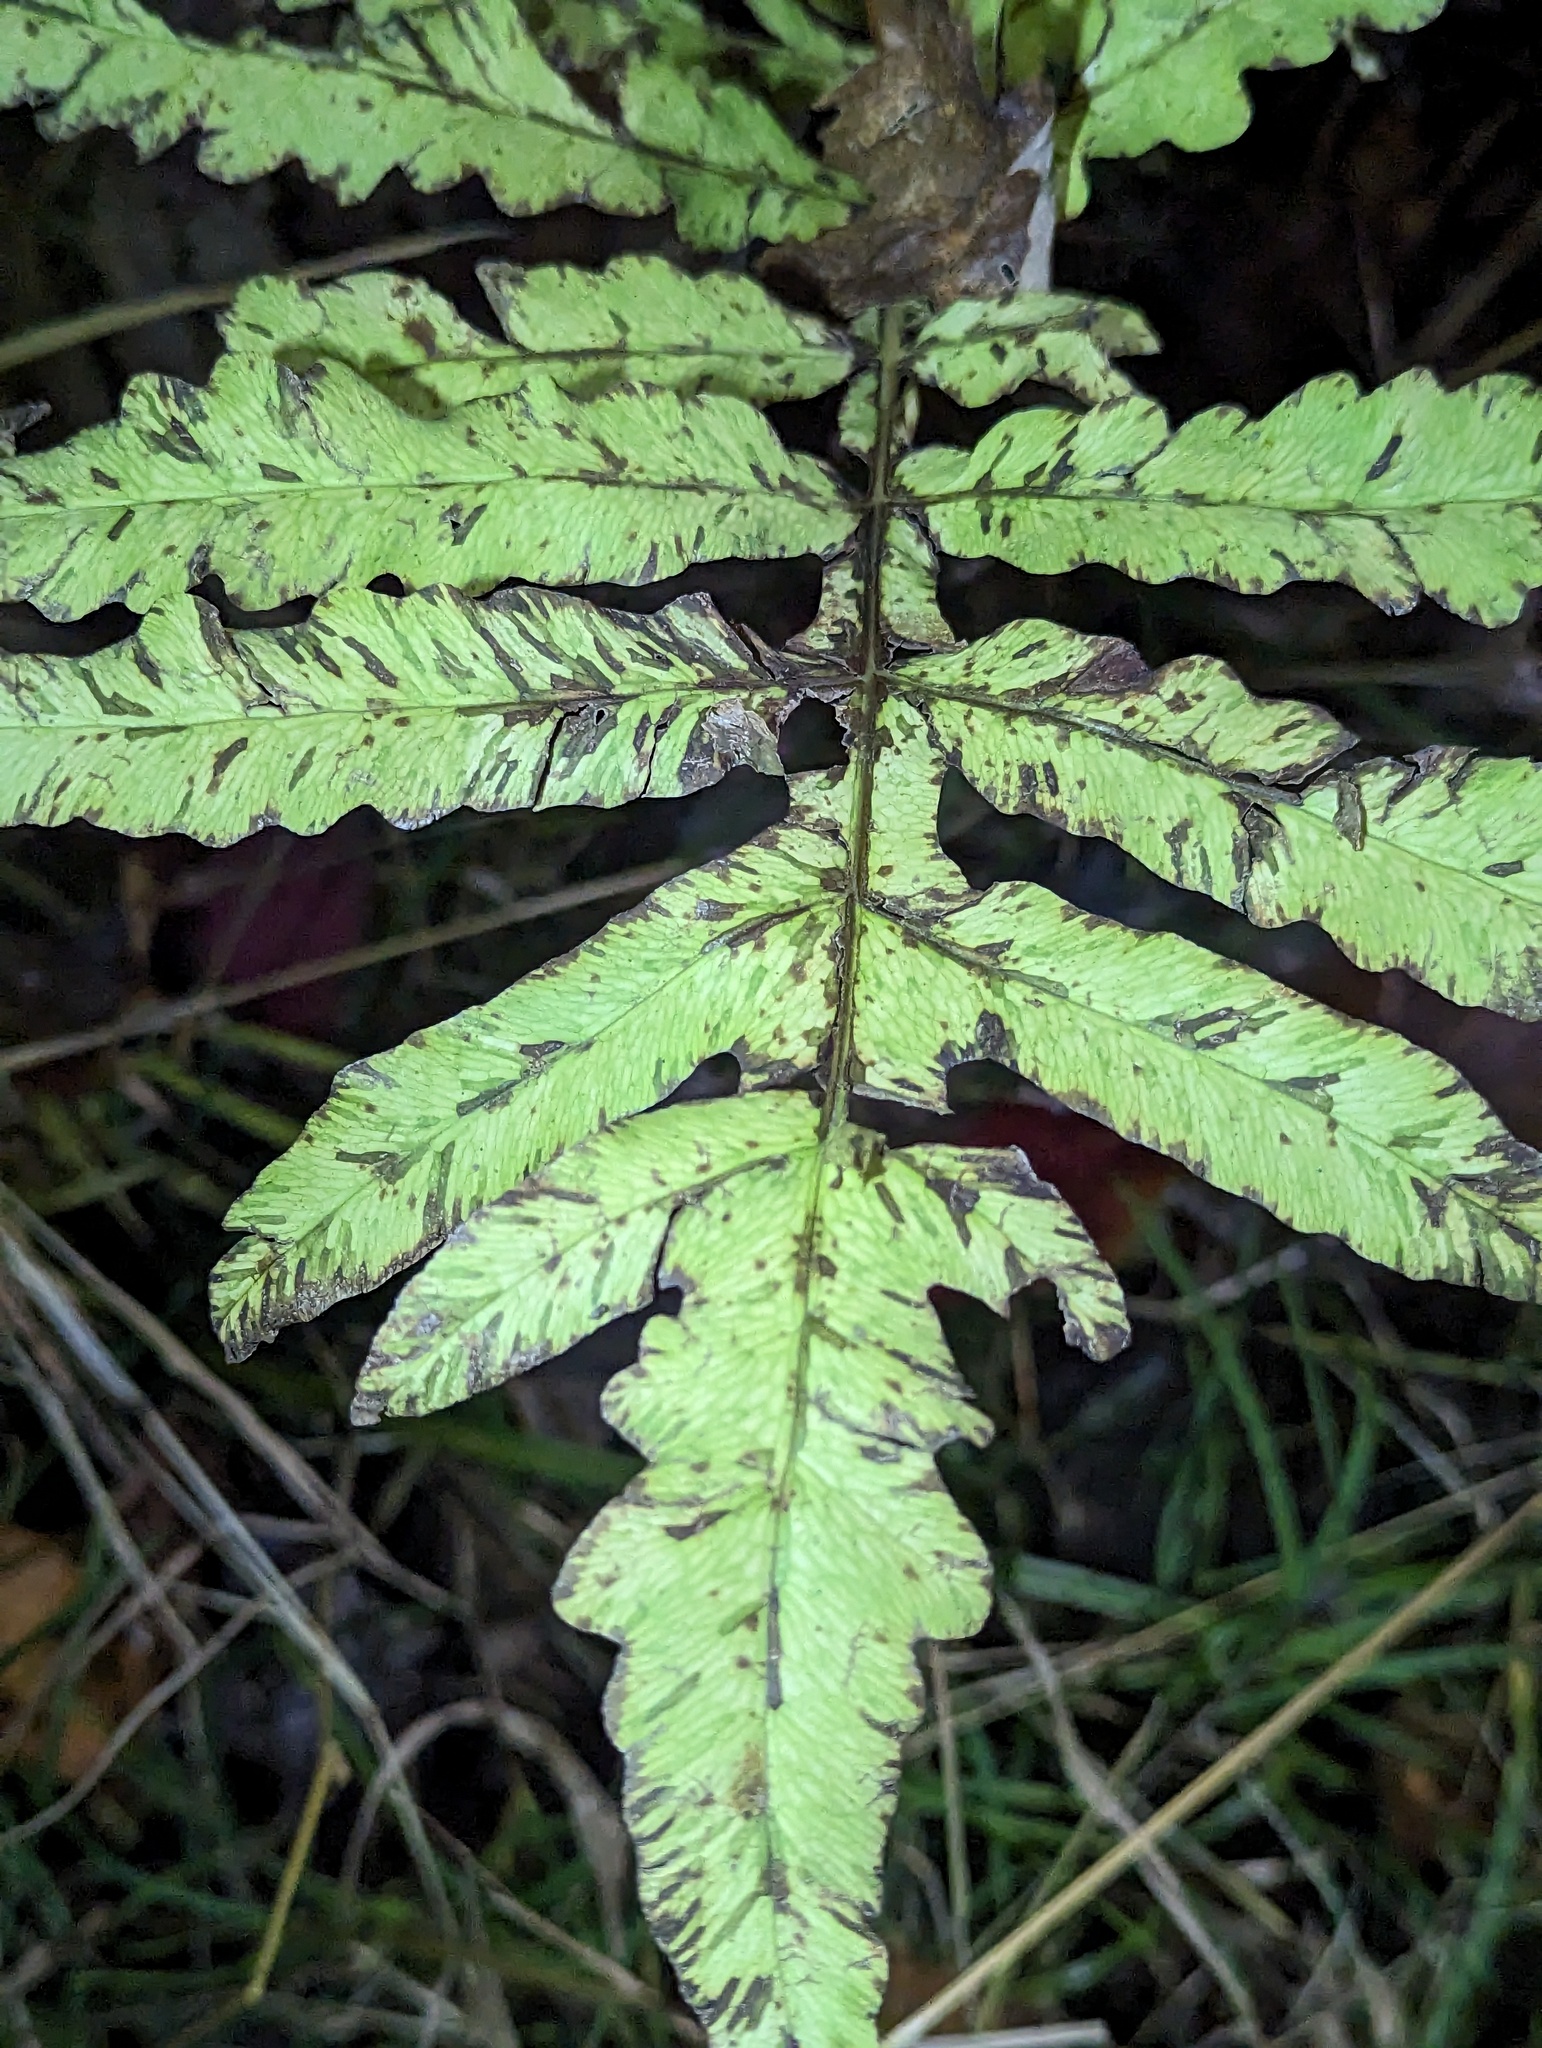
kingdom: Plantae
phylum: Tracheophyta
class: Polypodiopsida
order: Polypodiales
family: Onocleaceae
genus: Onoclea
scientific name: Onoclea sensibilis
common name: Sensitive fern
